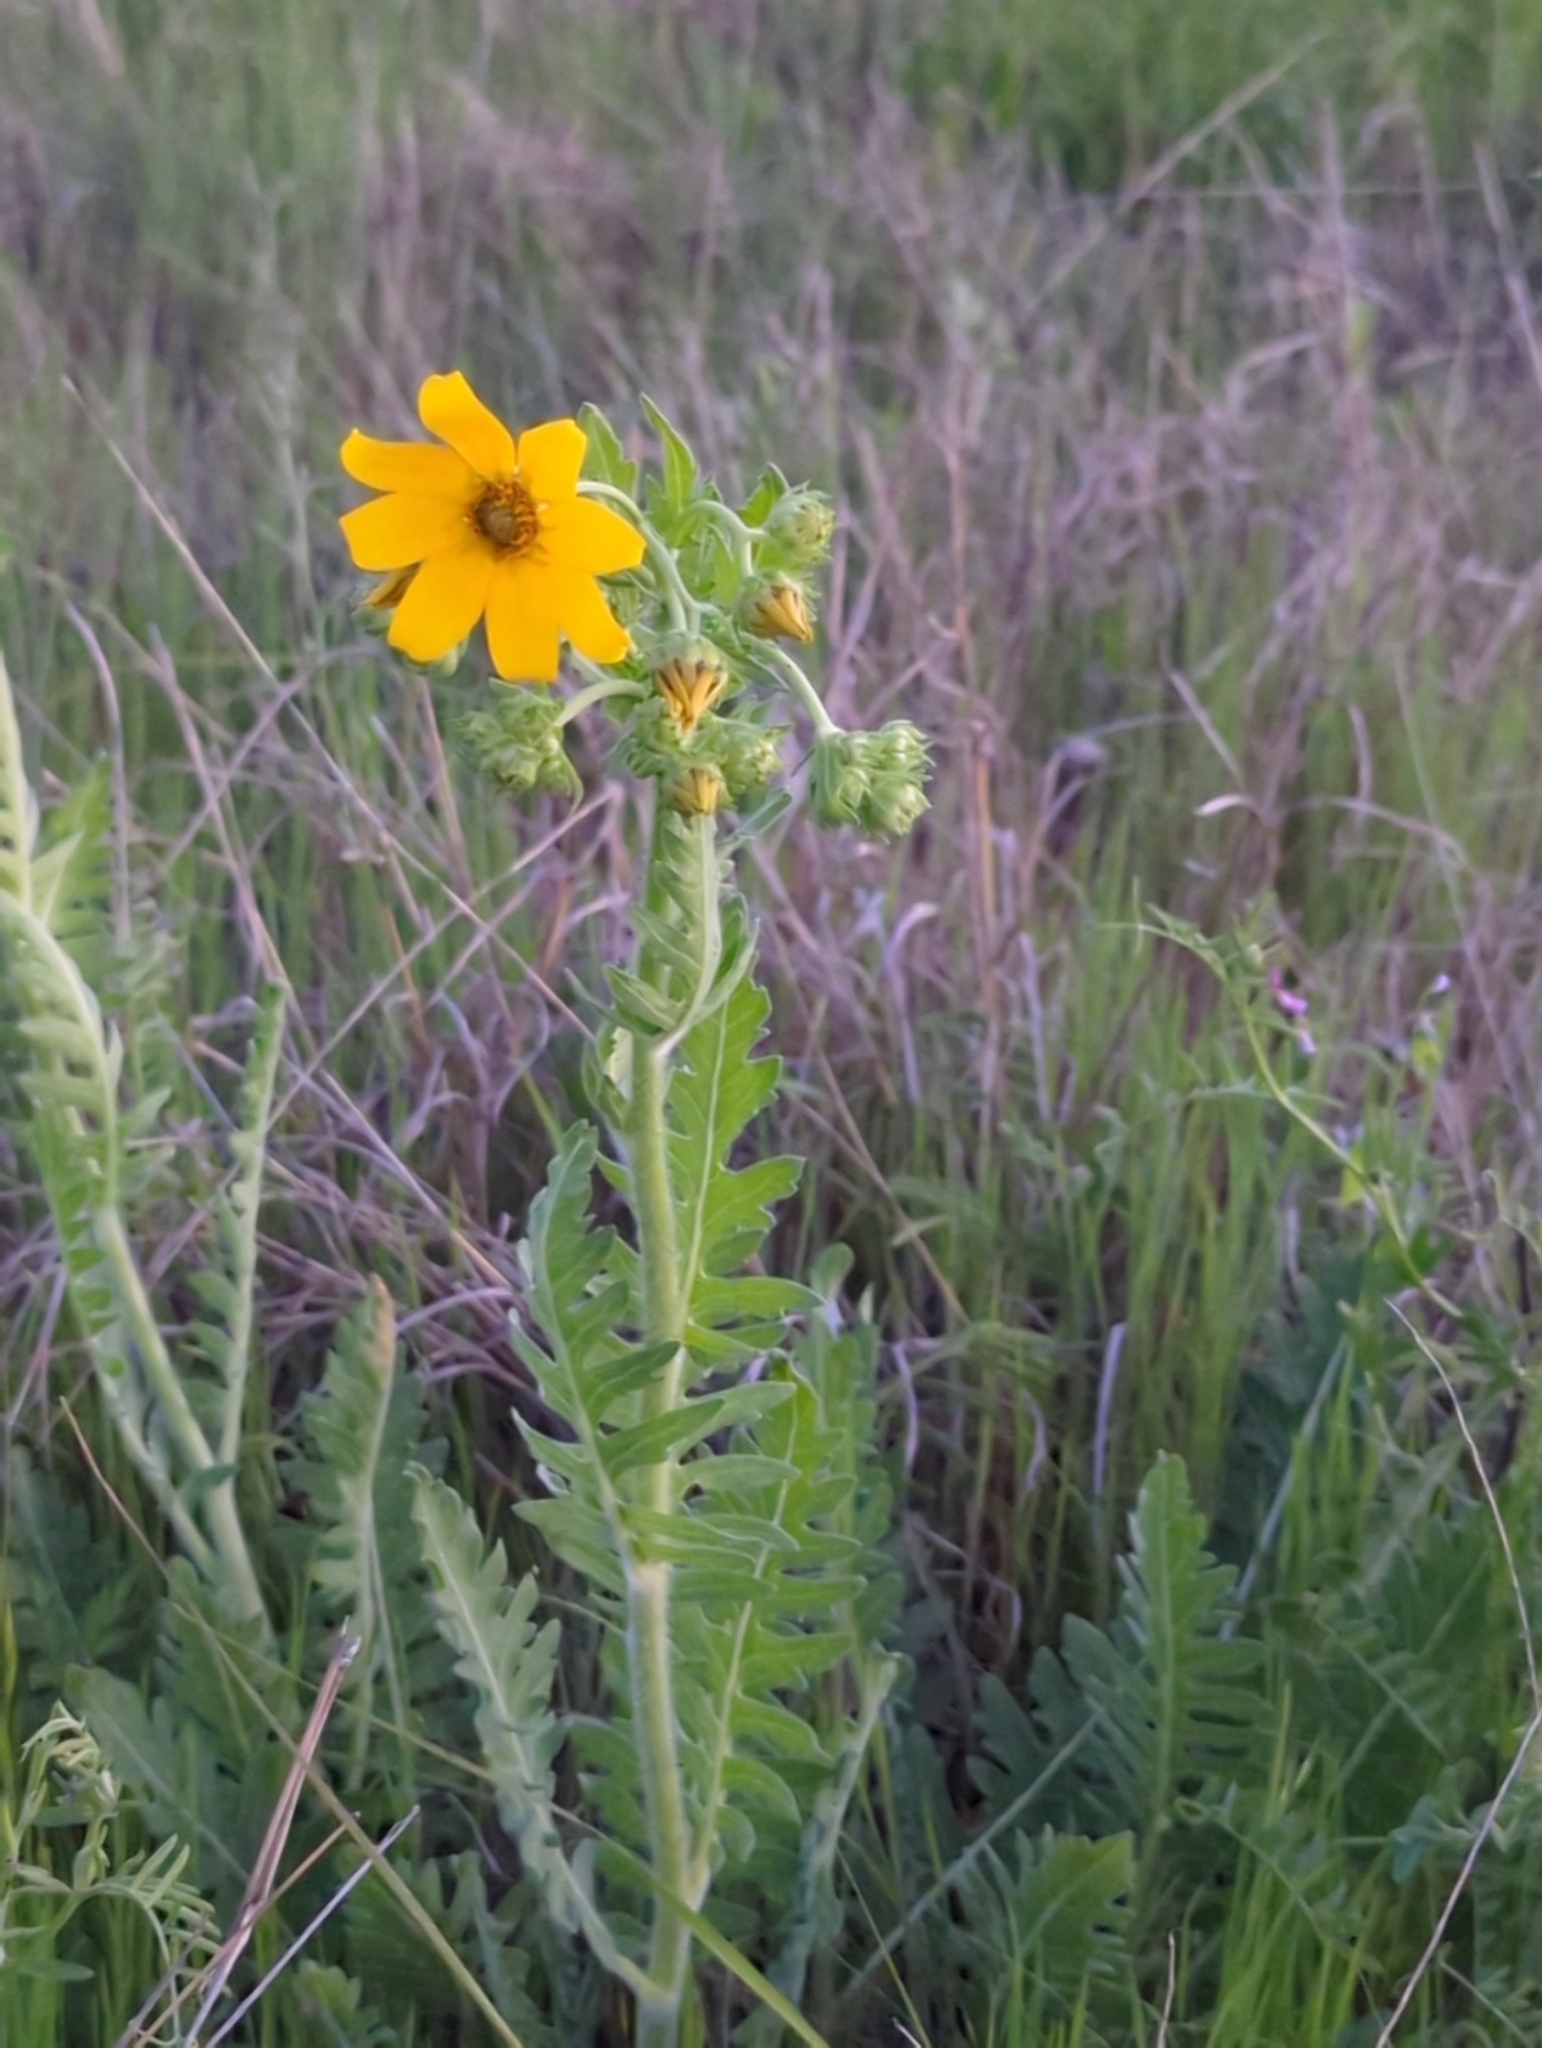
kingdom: Plantae
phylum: Tracheophyta
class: Magnoliopsida
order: Asterales
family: Asteraceae
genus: Engelmannia
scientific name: Engelmannia peristenia
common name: Engelmann's daisy
